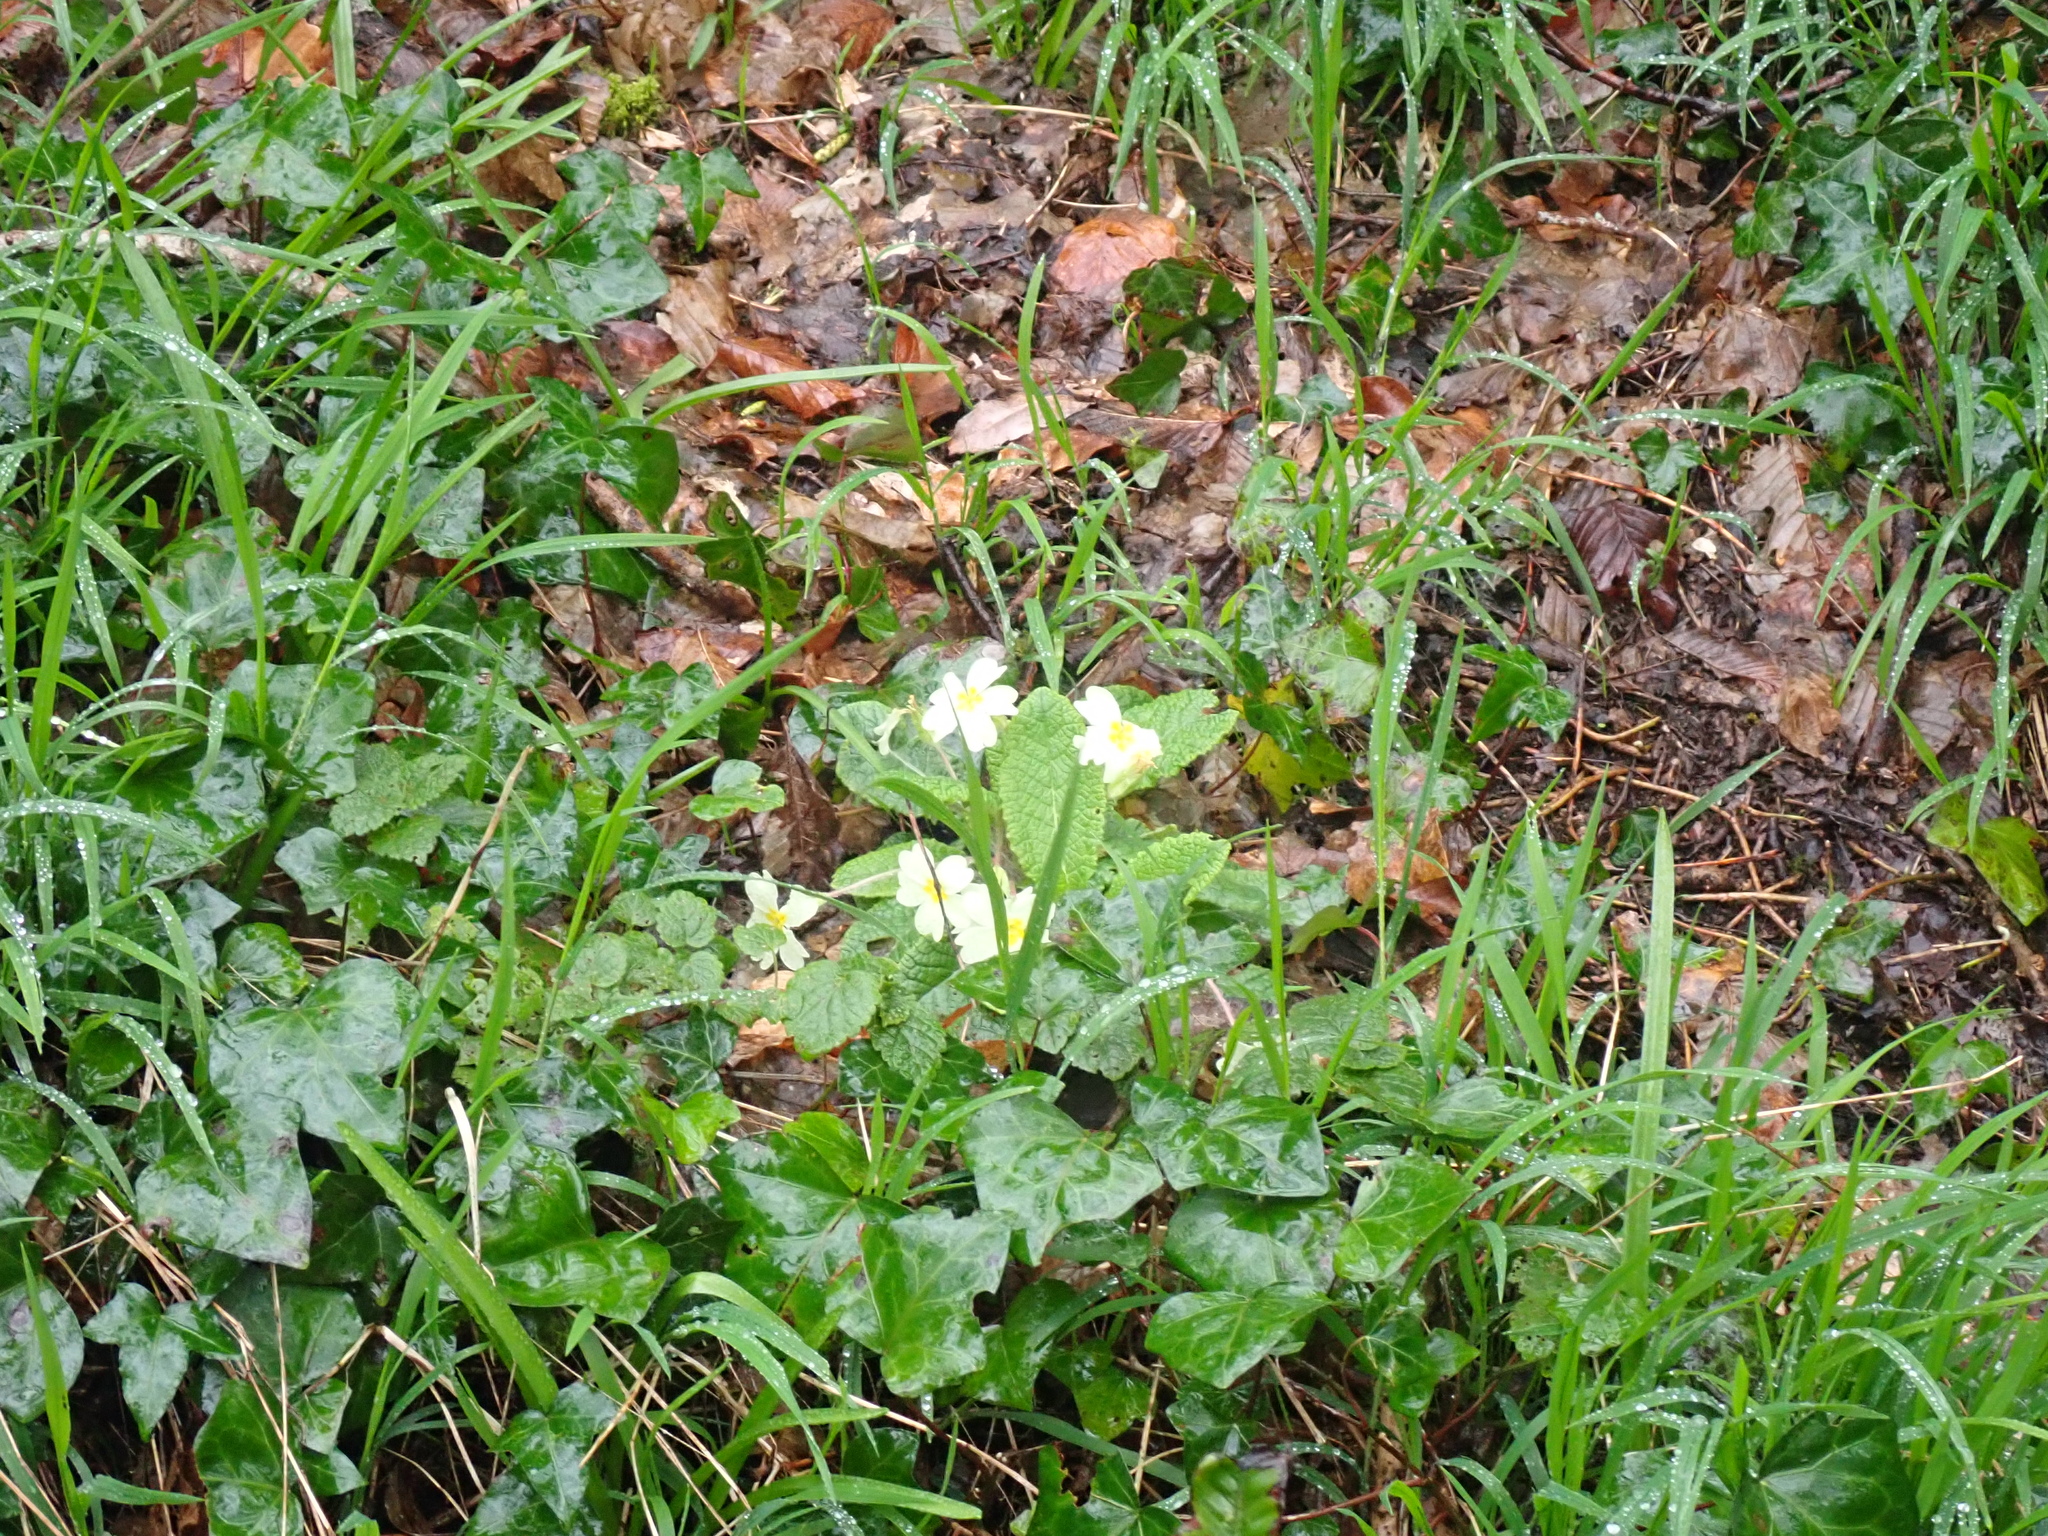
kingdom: Plantae
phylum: Tracheophyta
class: Magnoliopsida
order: Ericales
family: Primulaceae
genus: Primula
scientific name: Primula vulgaris
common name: Primrose
